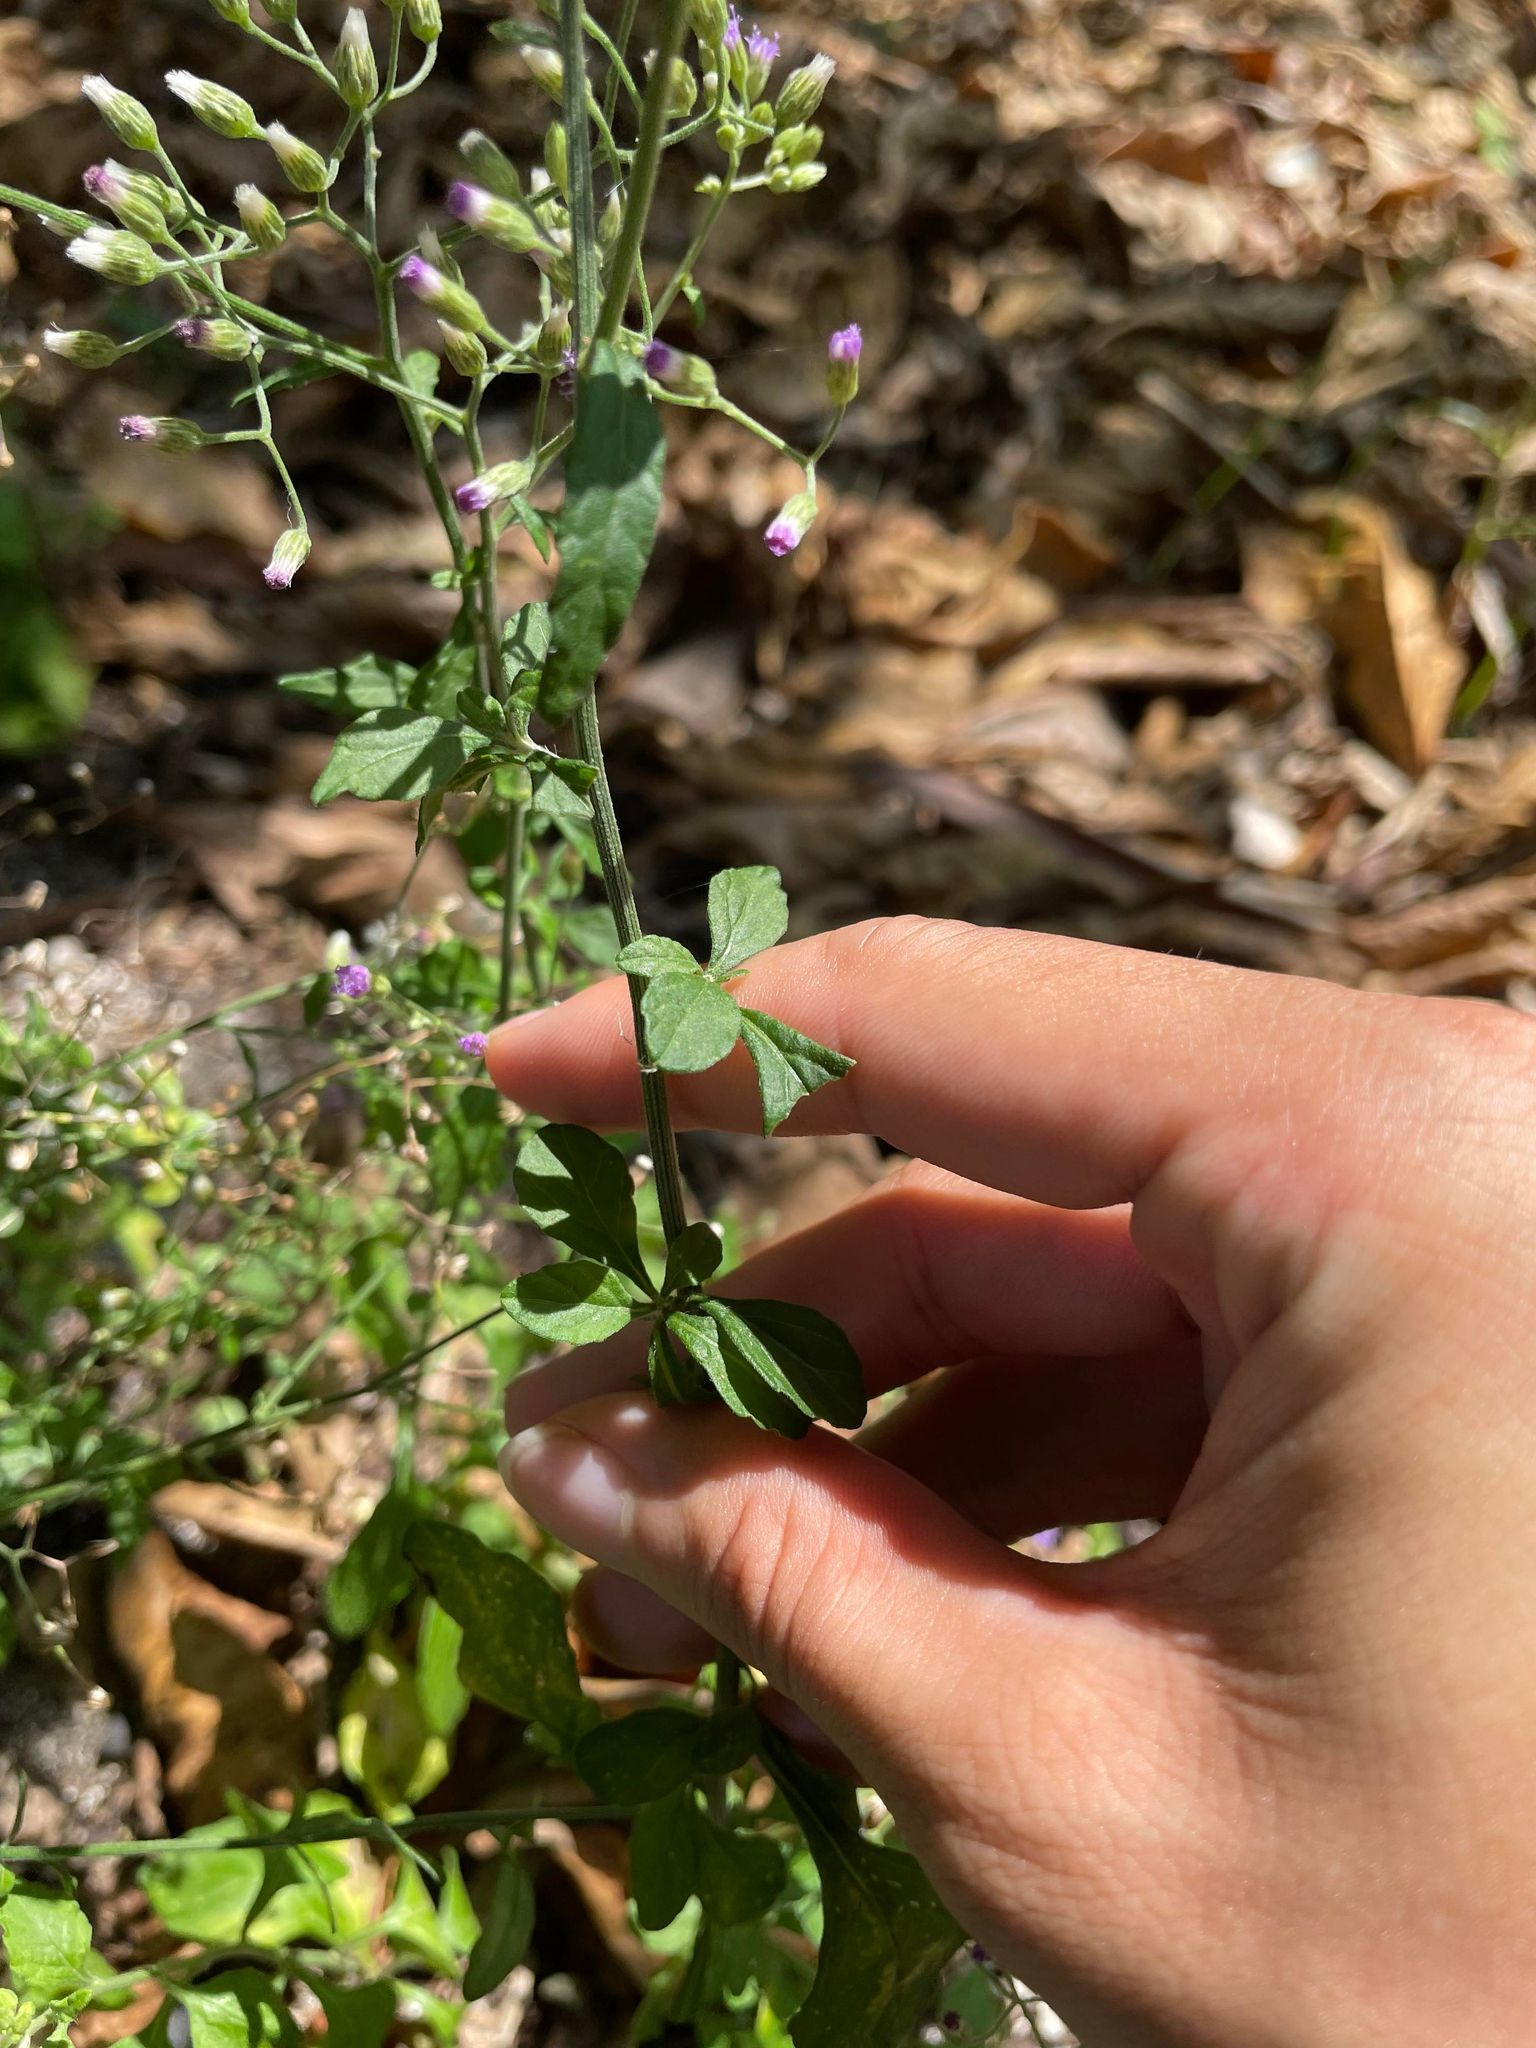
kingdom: Plantae
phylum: Tracheophyta
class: Magnoliopsida
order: Asterales
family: Asteraceae
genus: Cyanthillium
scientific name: Cyanthillium cinereum
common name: Little ironweed
